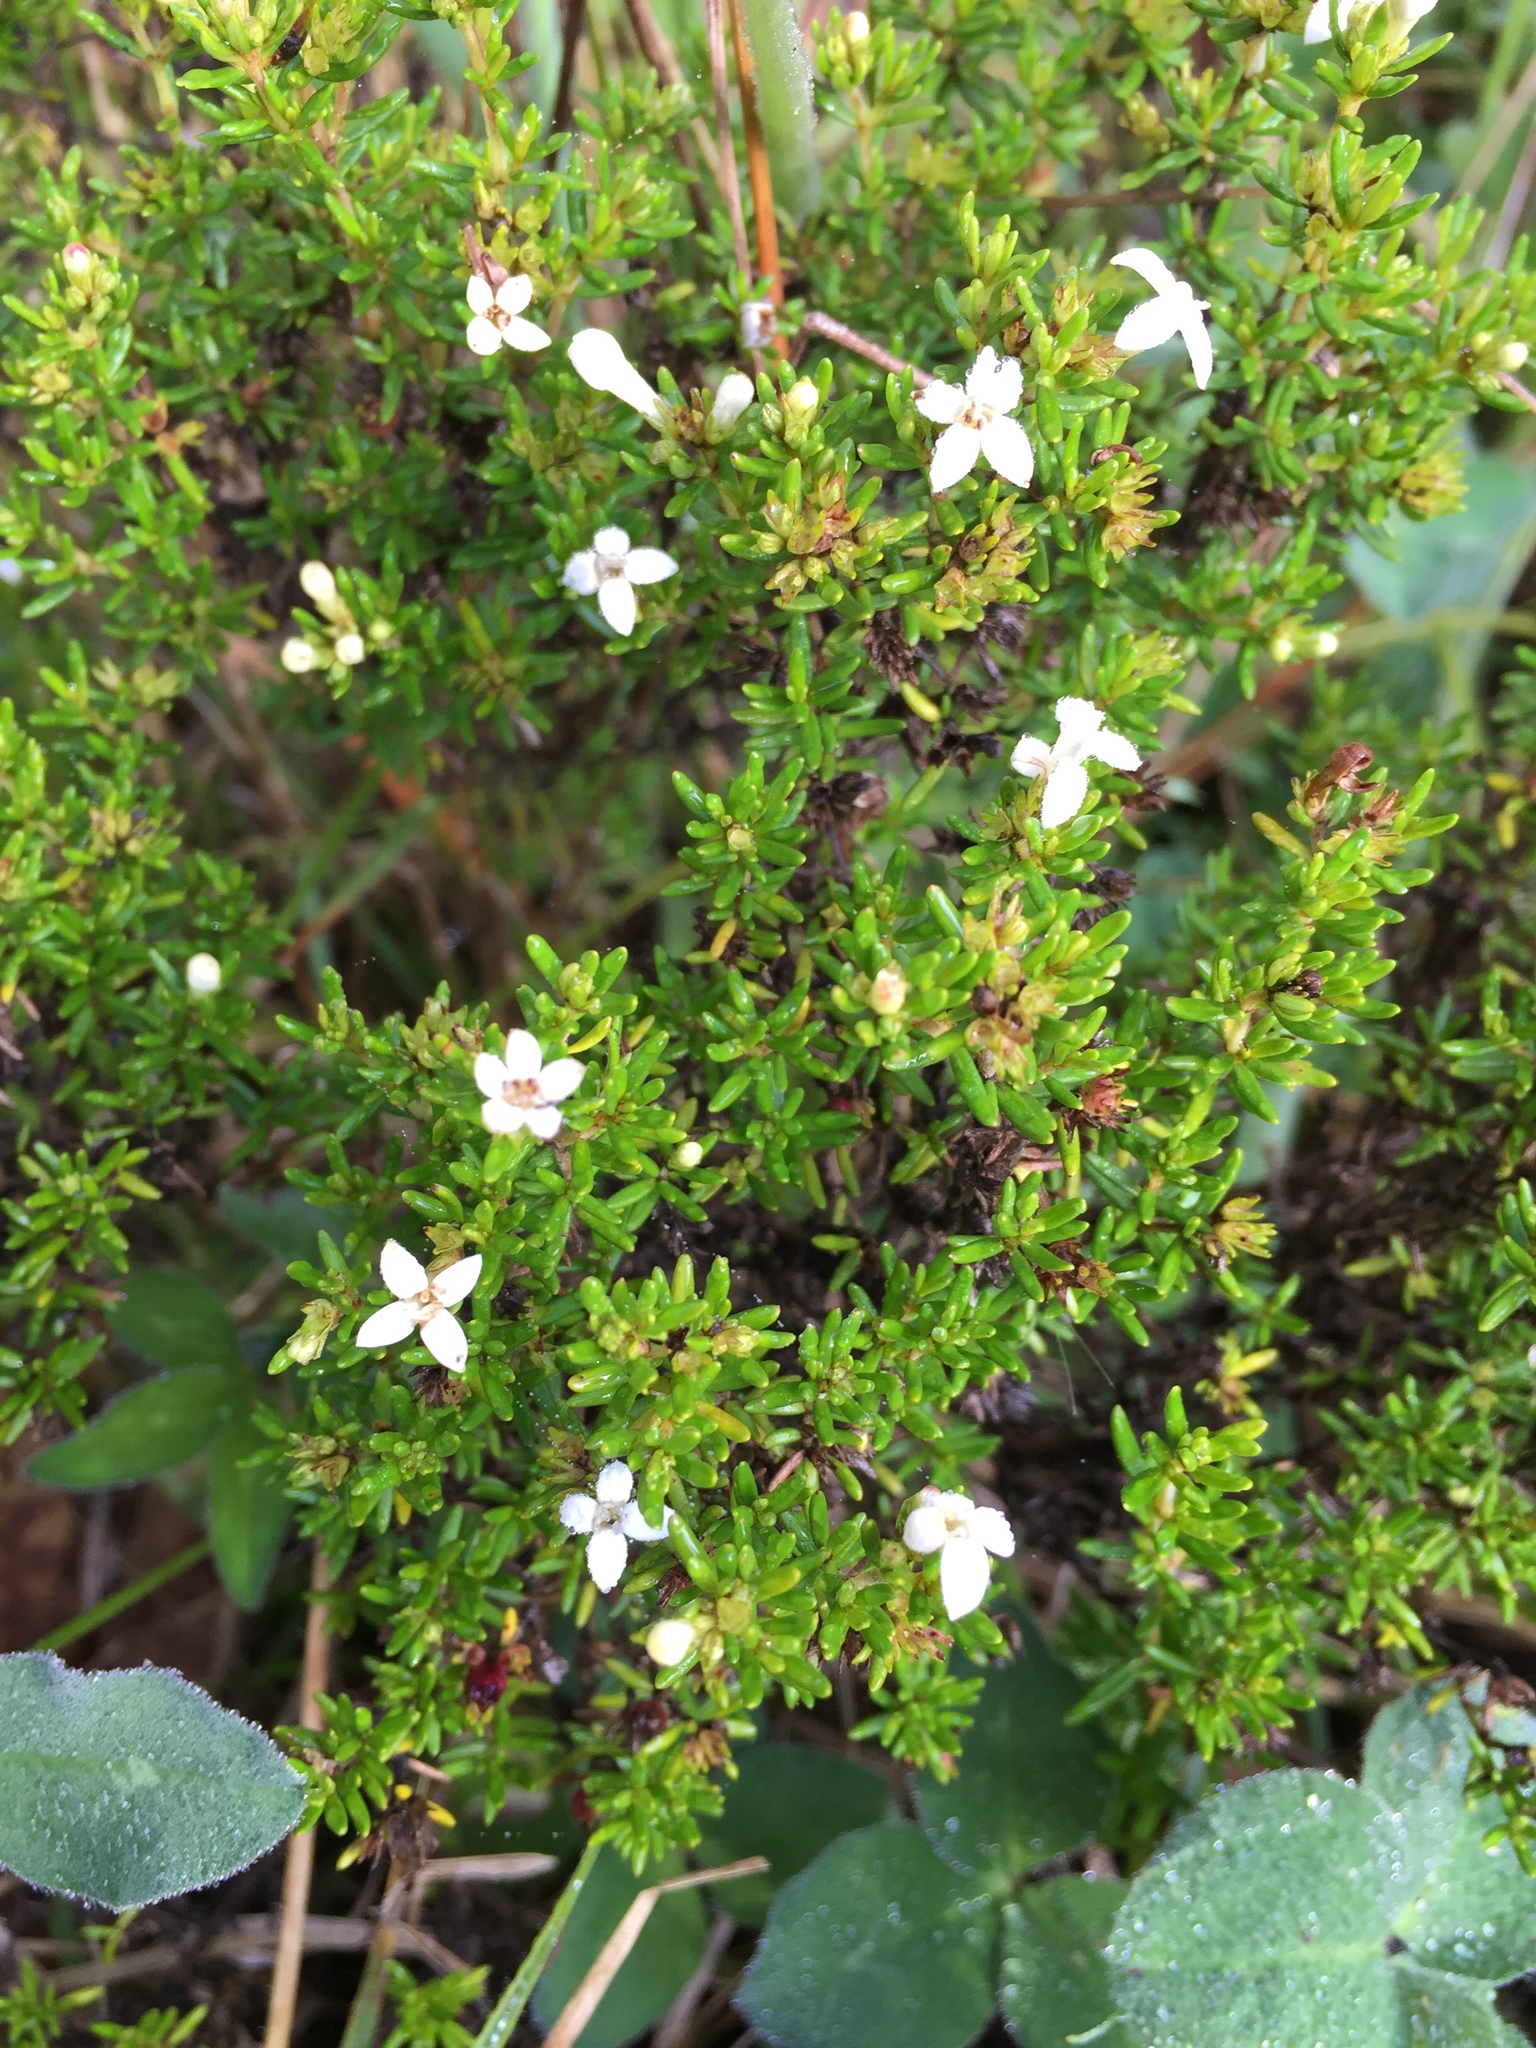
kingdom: Plantae
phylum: Tracheophyta
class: Magnoliopsida
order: Gentianales
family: Rubiaceae
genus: Arcytophyllum
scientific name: Arcytophyllum thymifolium
